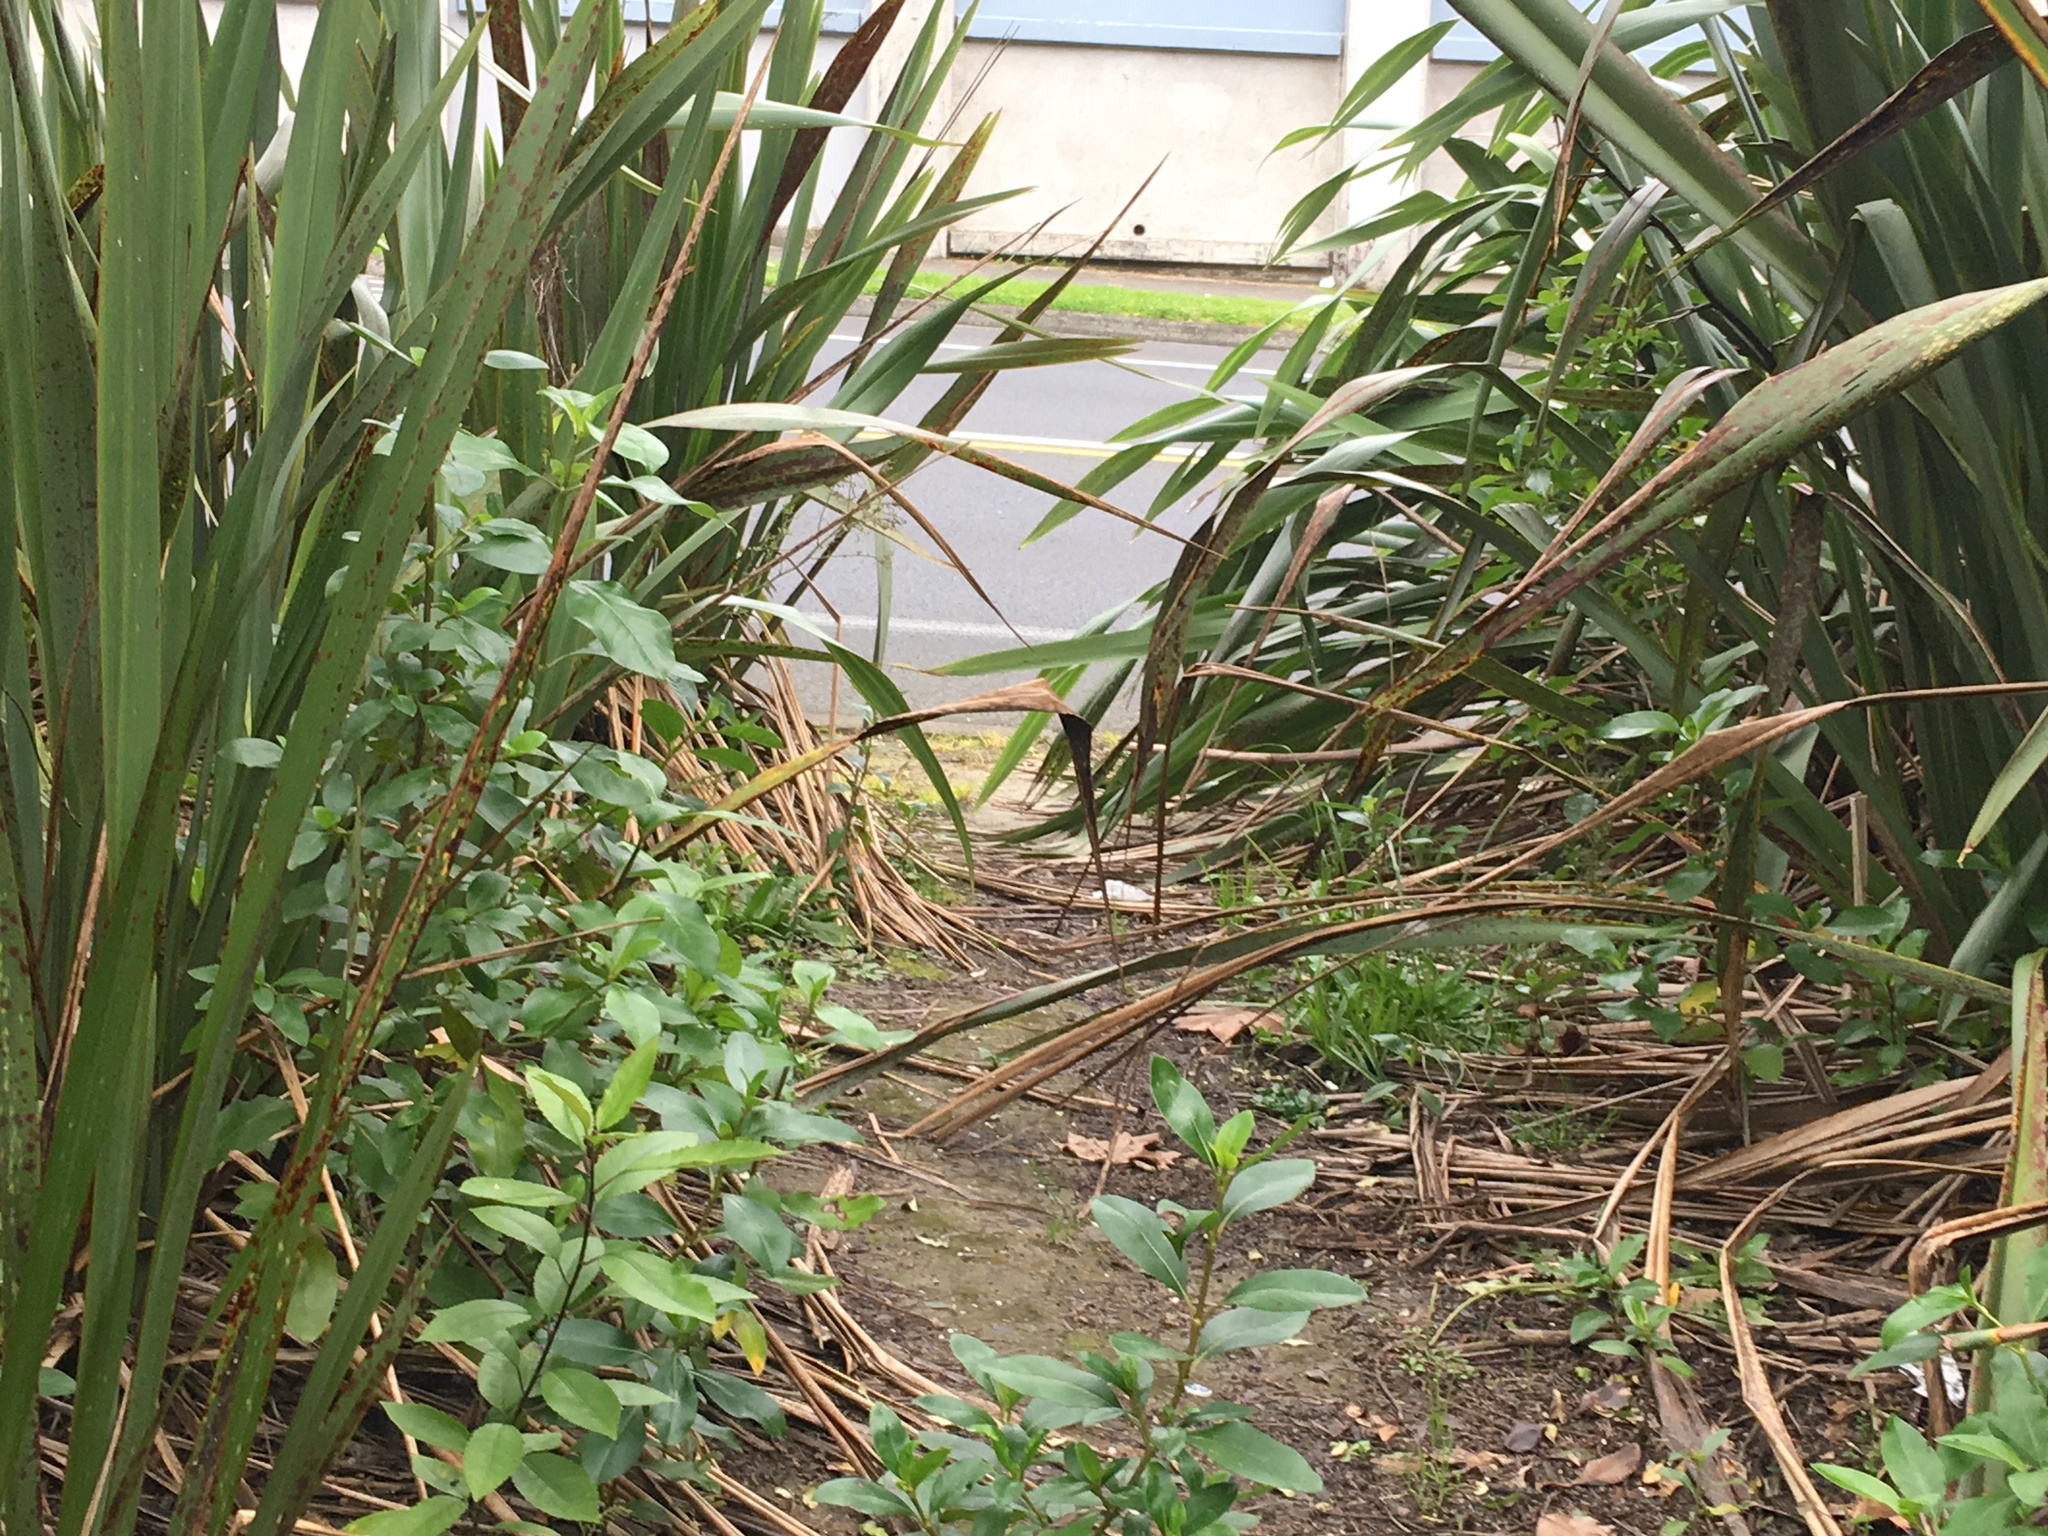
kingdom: Plantae
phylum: Tracheophyta
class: Liliopsida
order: Asparagales
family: Asphodelaceae
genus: Phormium
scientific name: Phormium tenax
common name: New zealand flax
